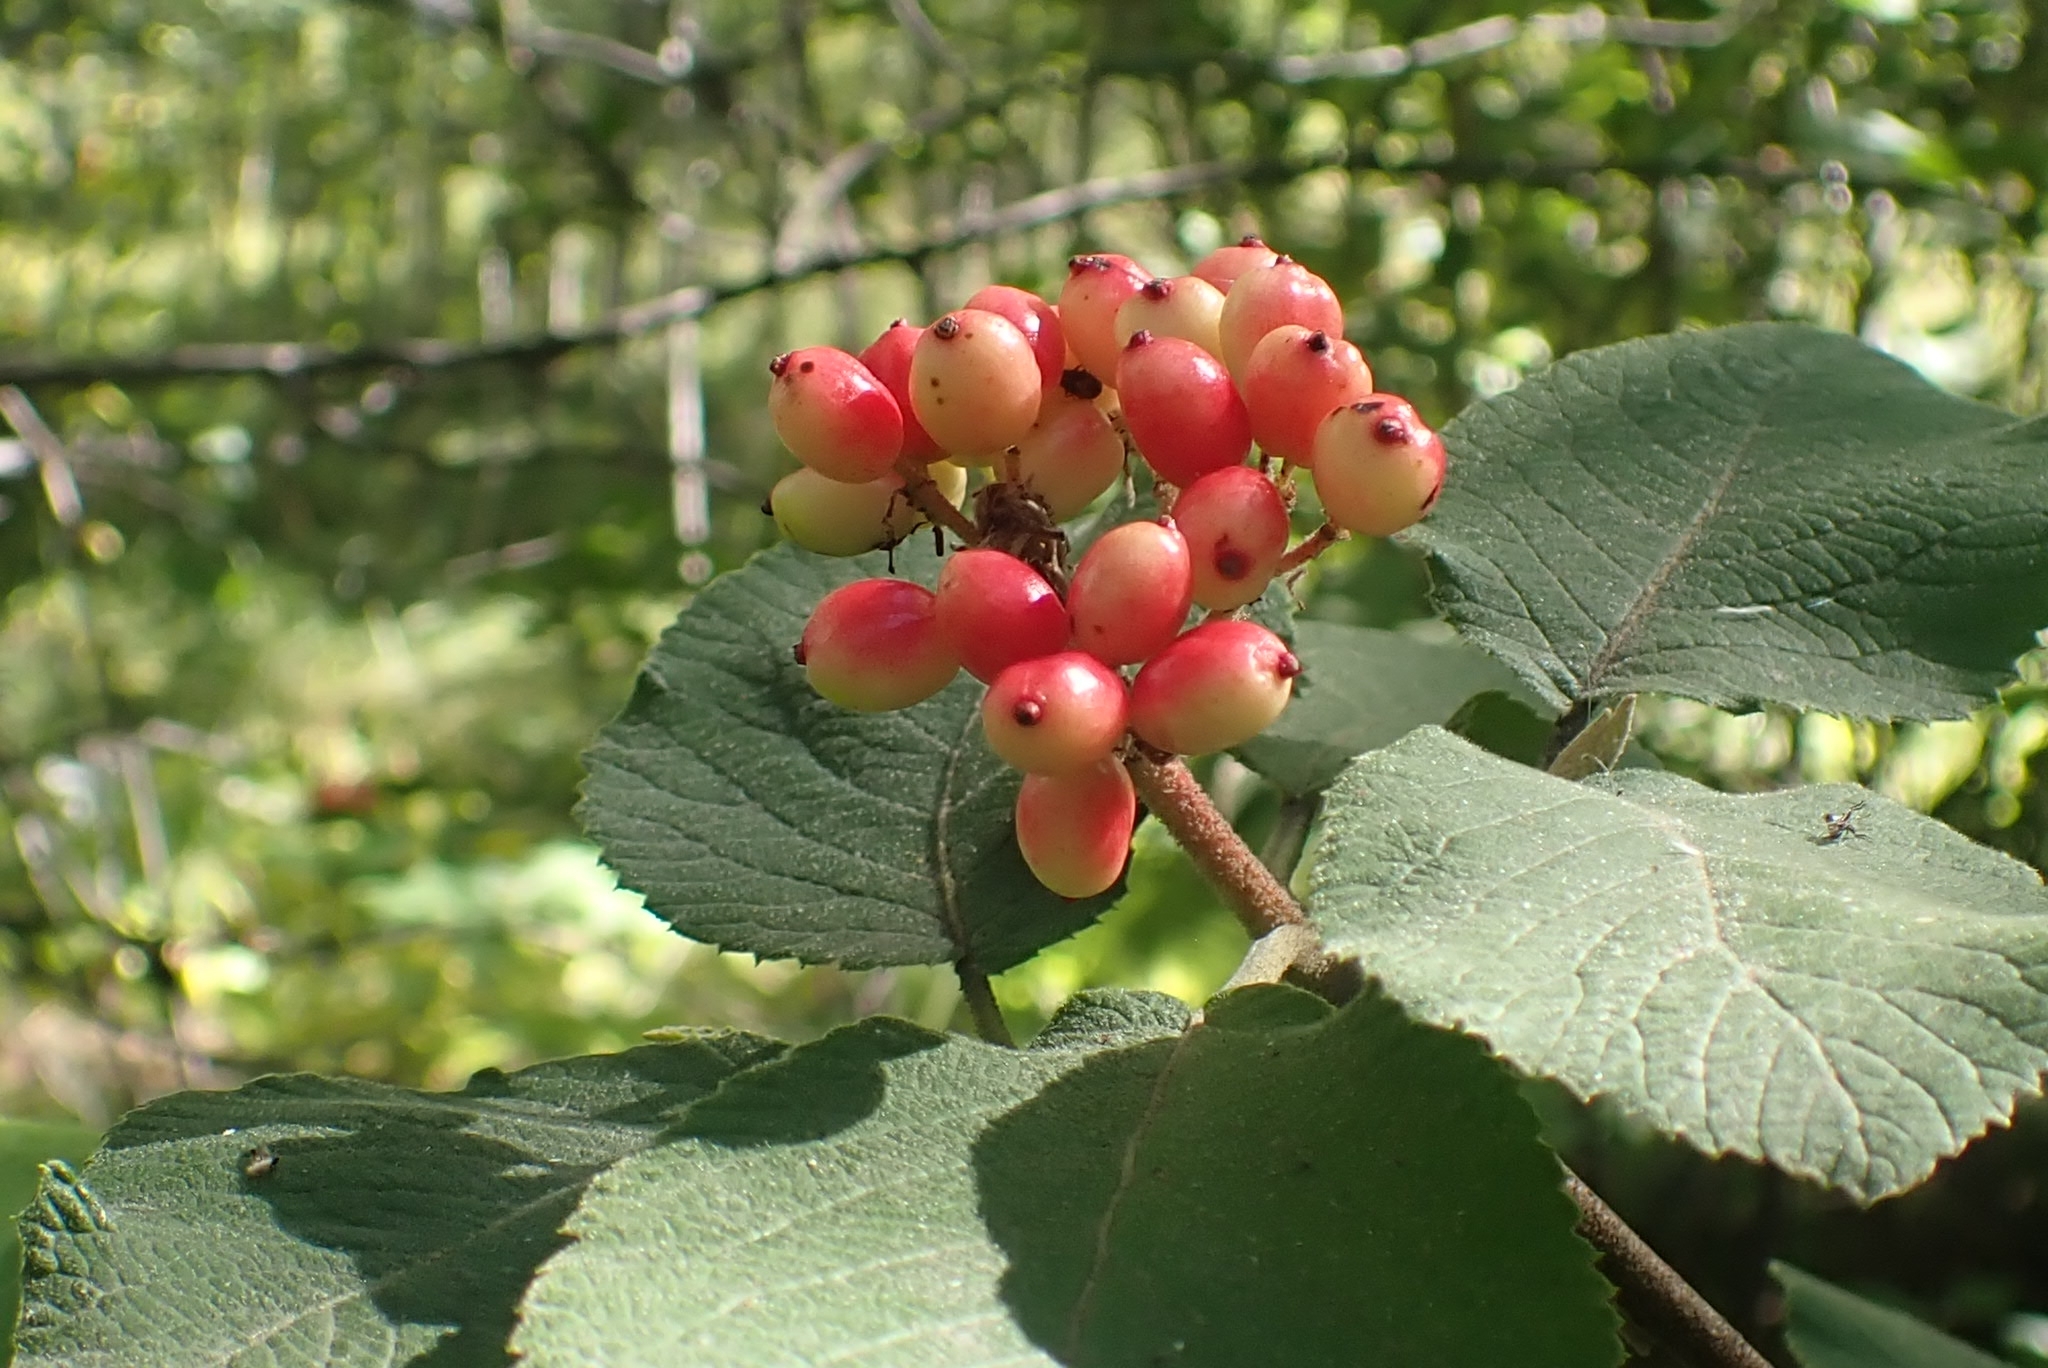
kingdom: Plantae
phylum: Tracheophyta
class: Magnoliopsida
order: Dipsacales
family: Viburnaceae
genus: Viburnum
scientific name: Viburnum lantana
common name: Wayfaring tree
